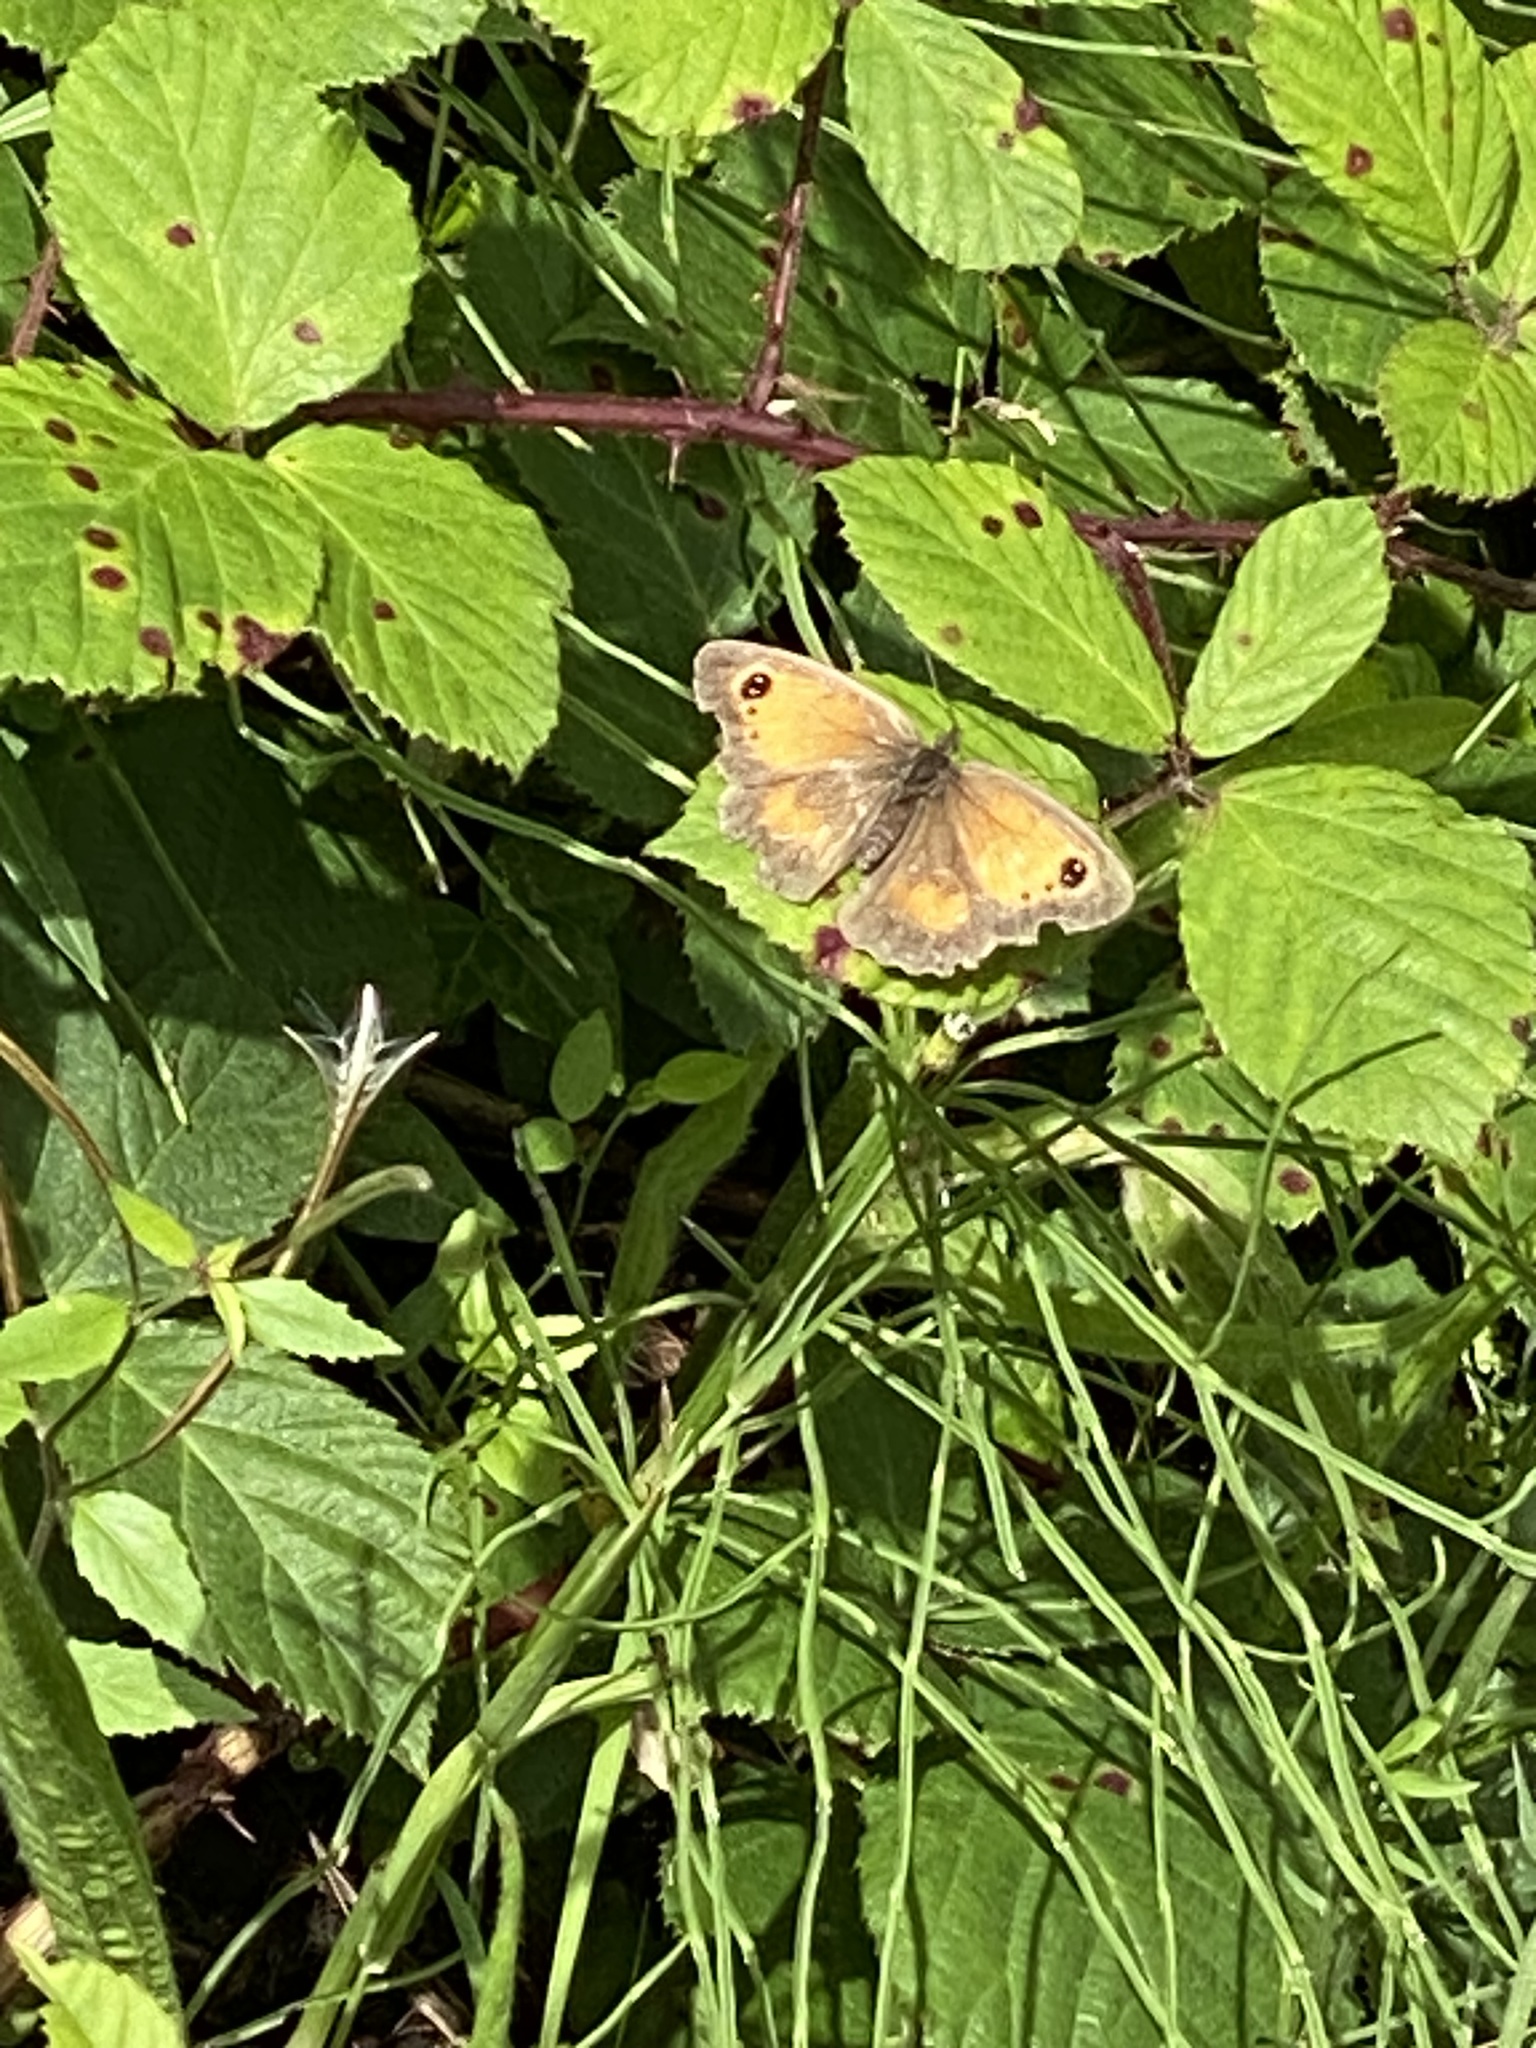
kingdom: Animalia
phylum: Arthropoda
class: Insecta
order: Lepidoptera
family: Nymphalidae
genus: Pyronia
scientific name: Pyronia tithonus
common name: Gatekeeper
